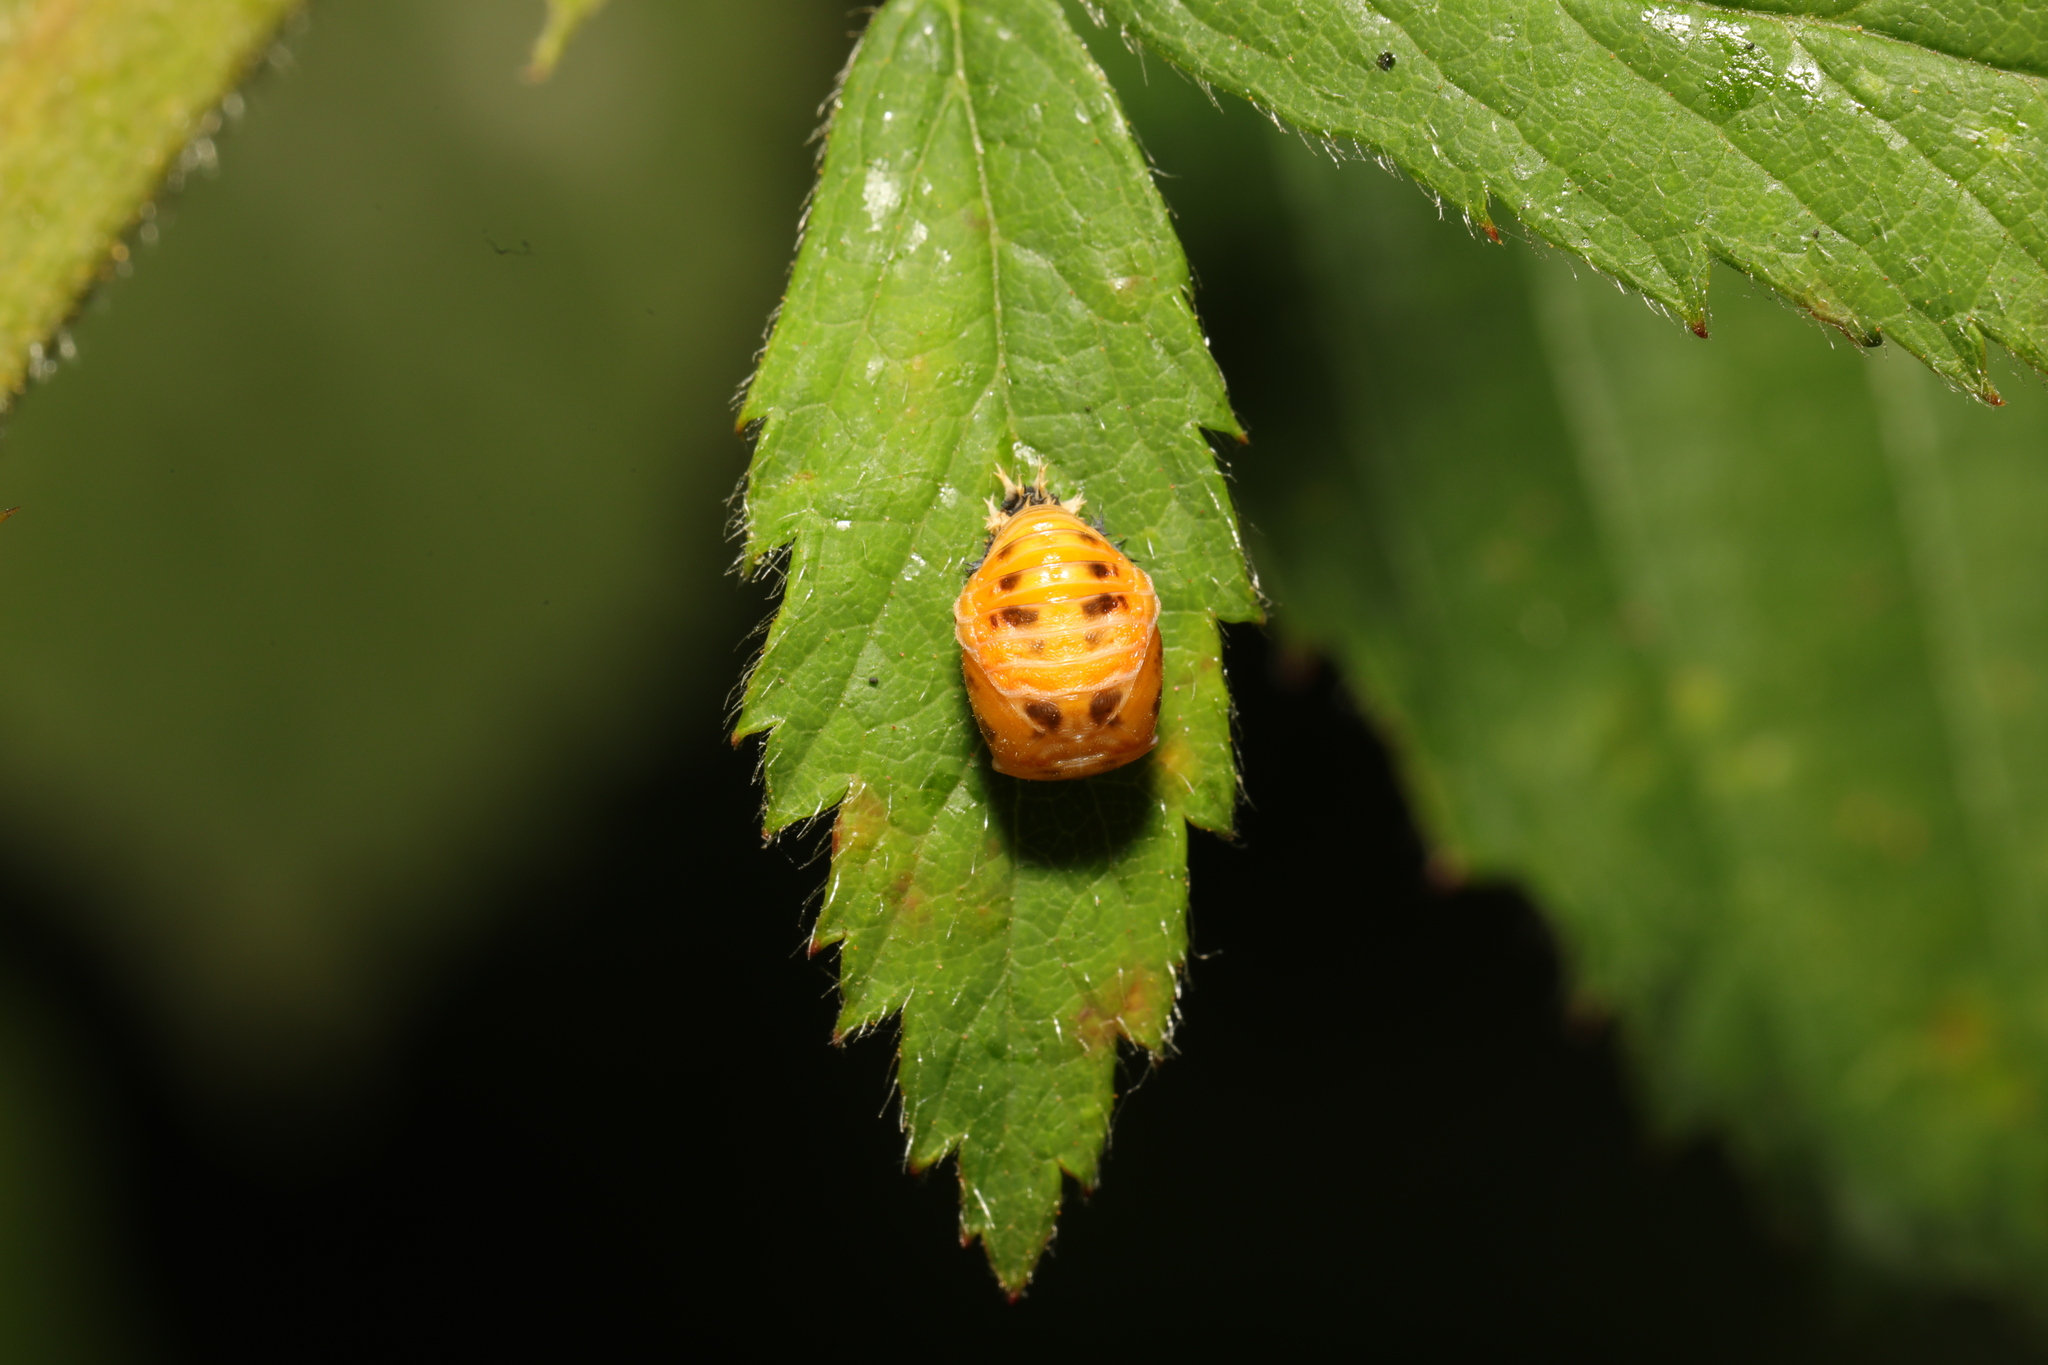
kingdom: Animalia
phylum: Arthropoda
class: Insecta
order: Coleoptera
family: Coccinellidae
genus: Harmonia
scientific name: Harmonia axyridis
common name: Harlequin ladybird
